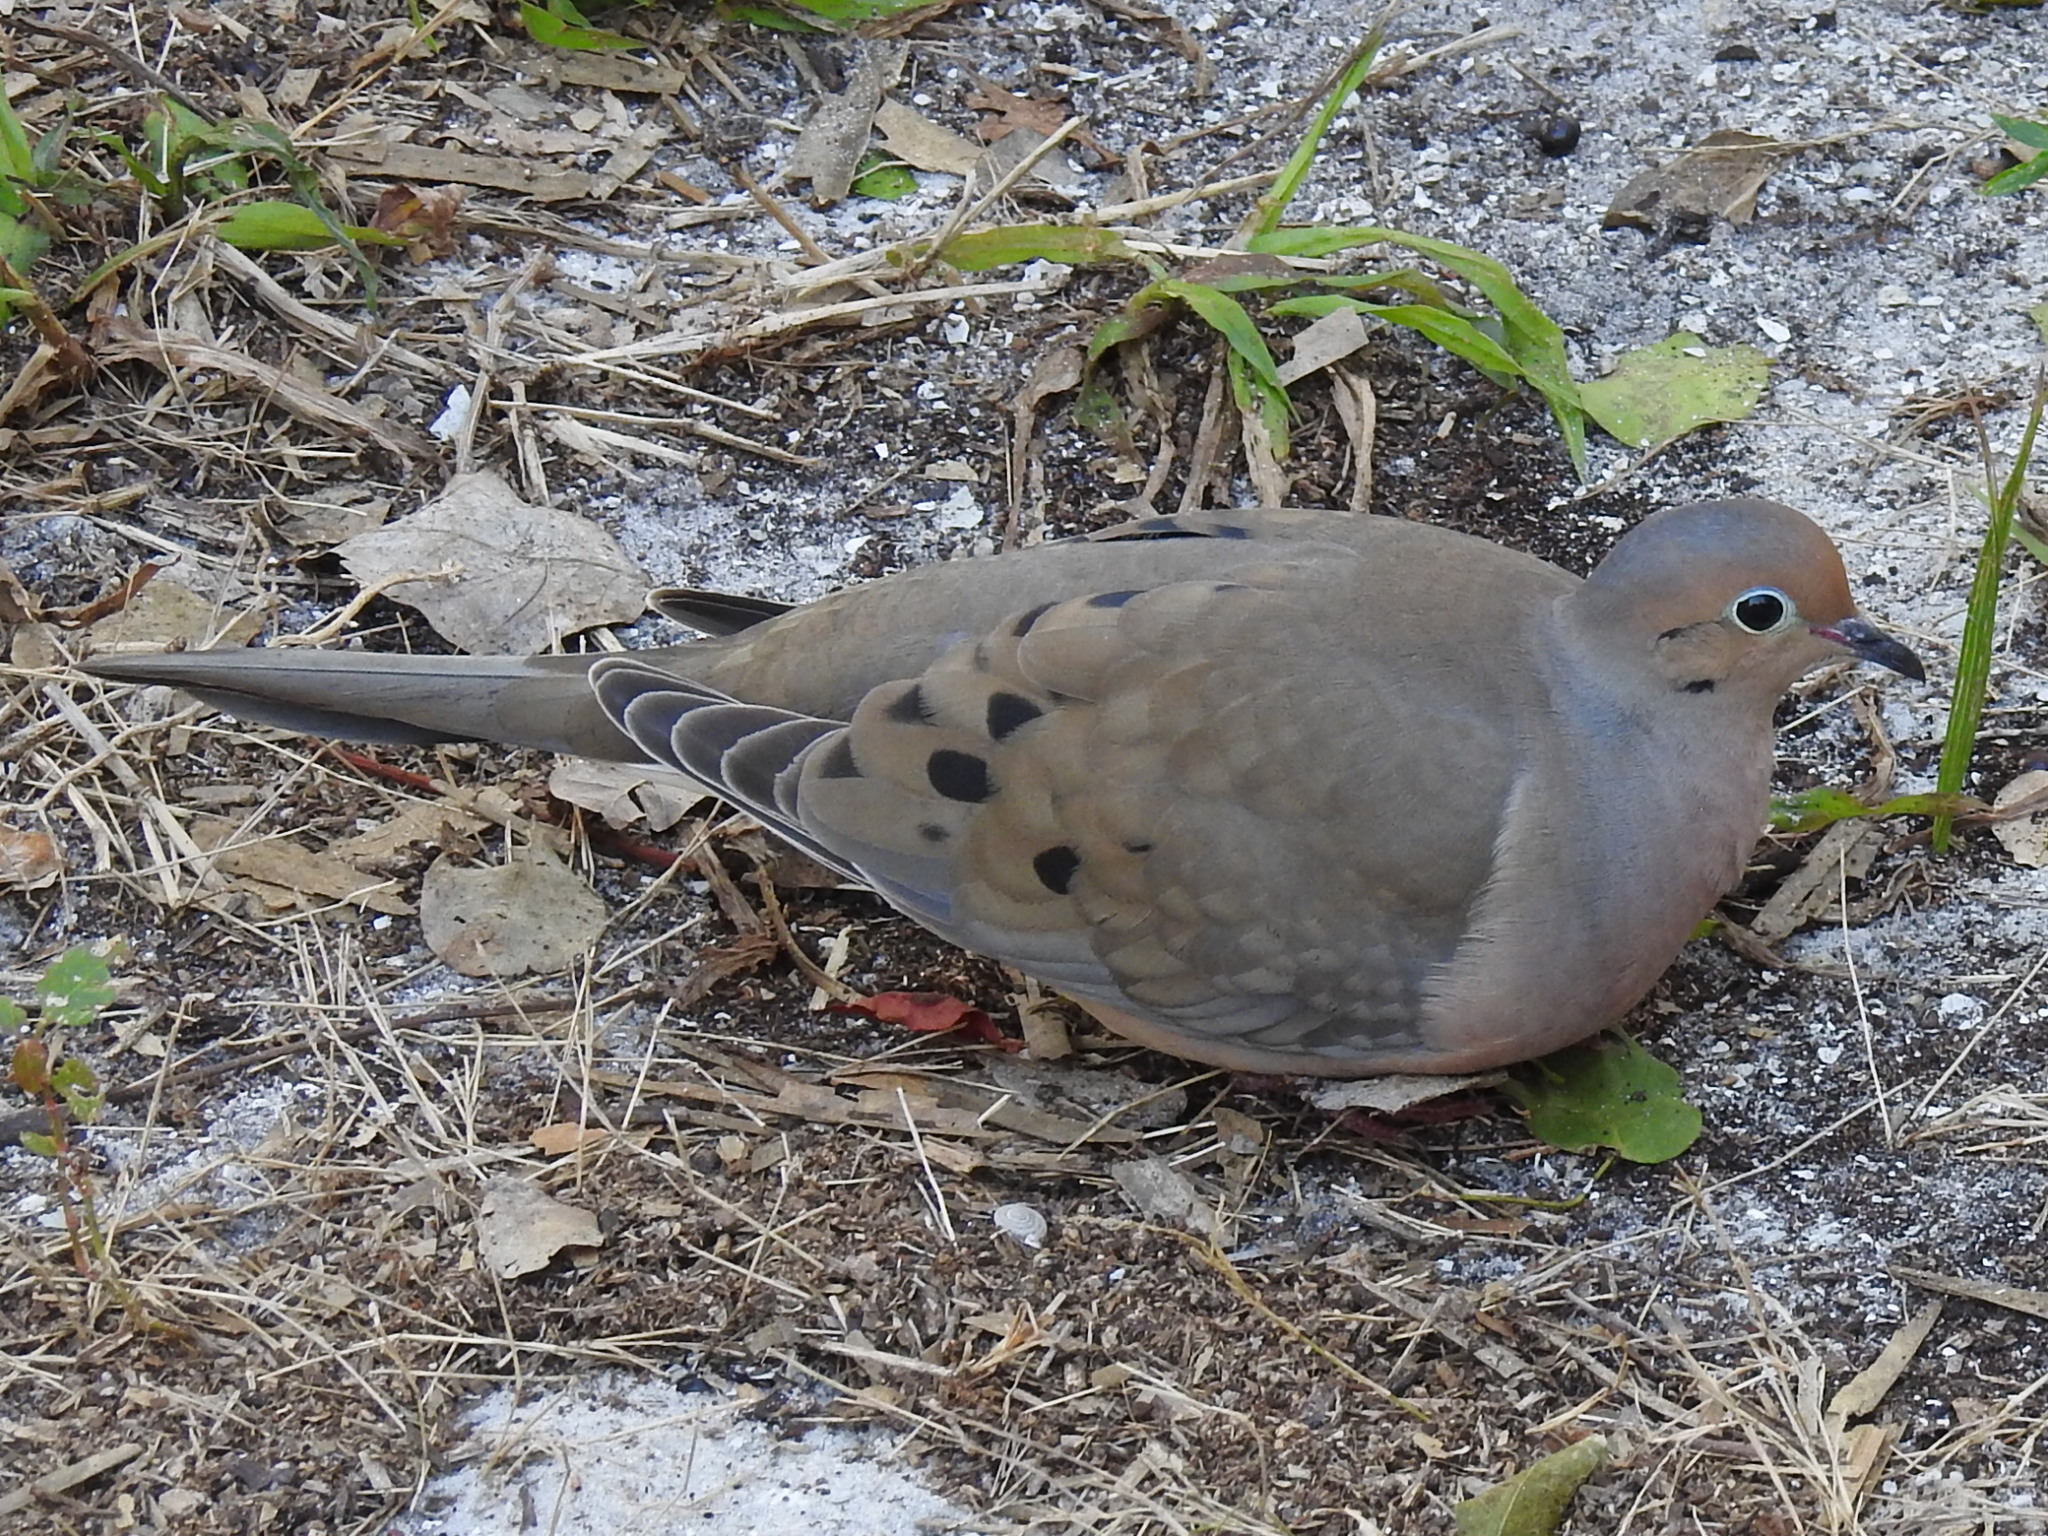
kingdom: Animalia
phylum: Chordata
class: Aves
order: Columbiformes
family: Columbidae
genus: Zenaida
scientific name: Zenaida macroura
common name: Mourning dove
